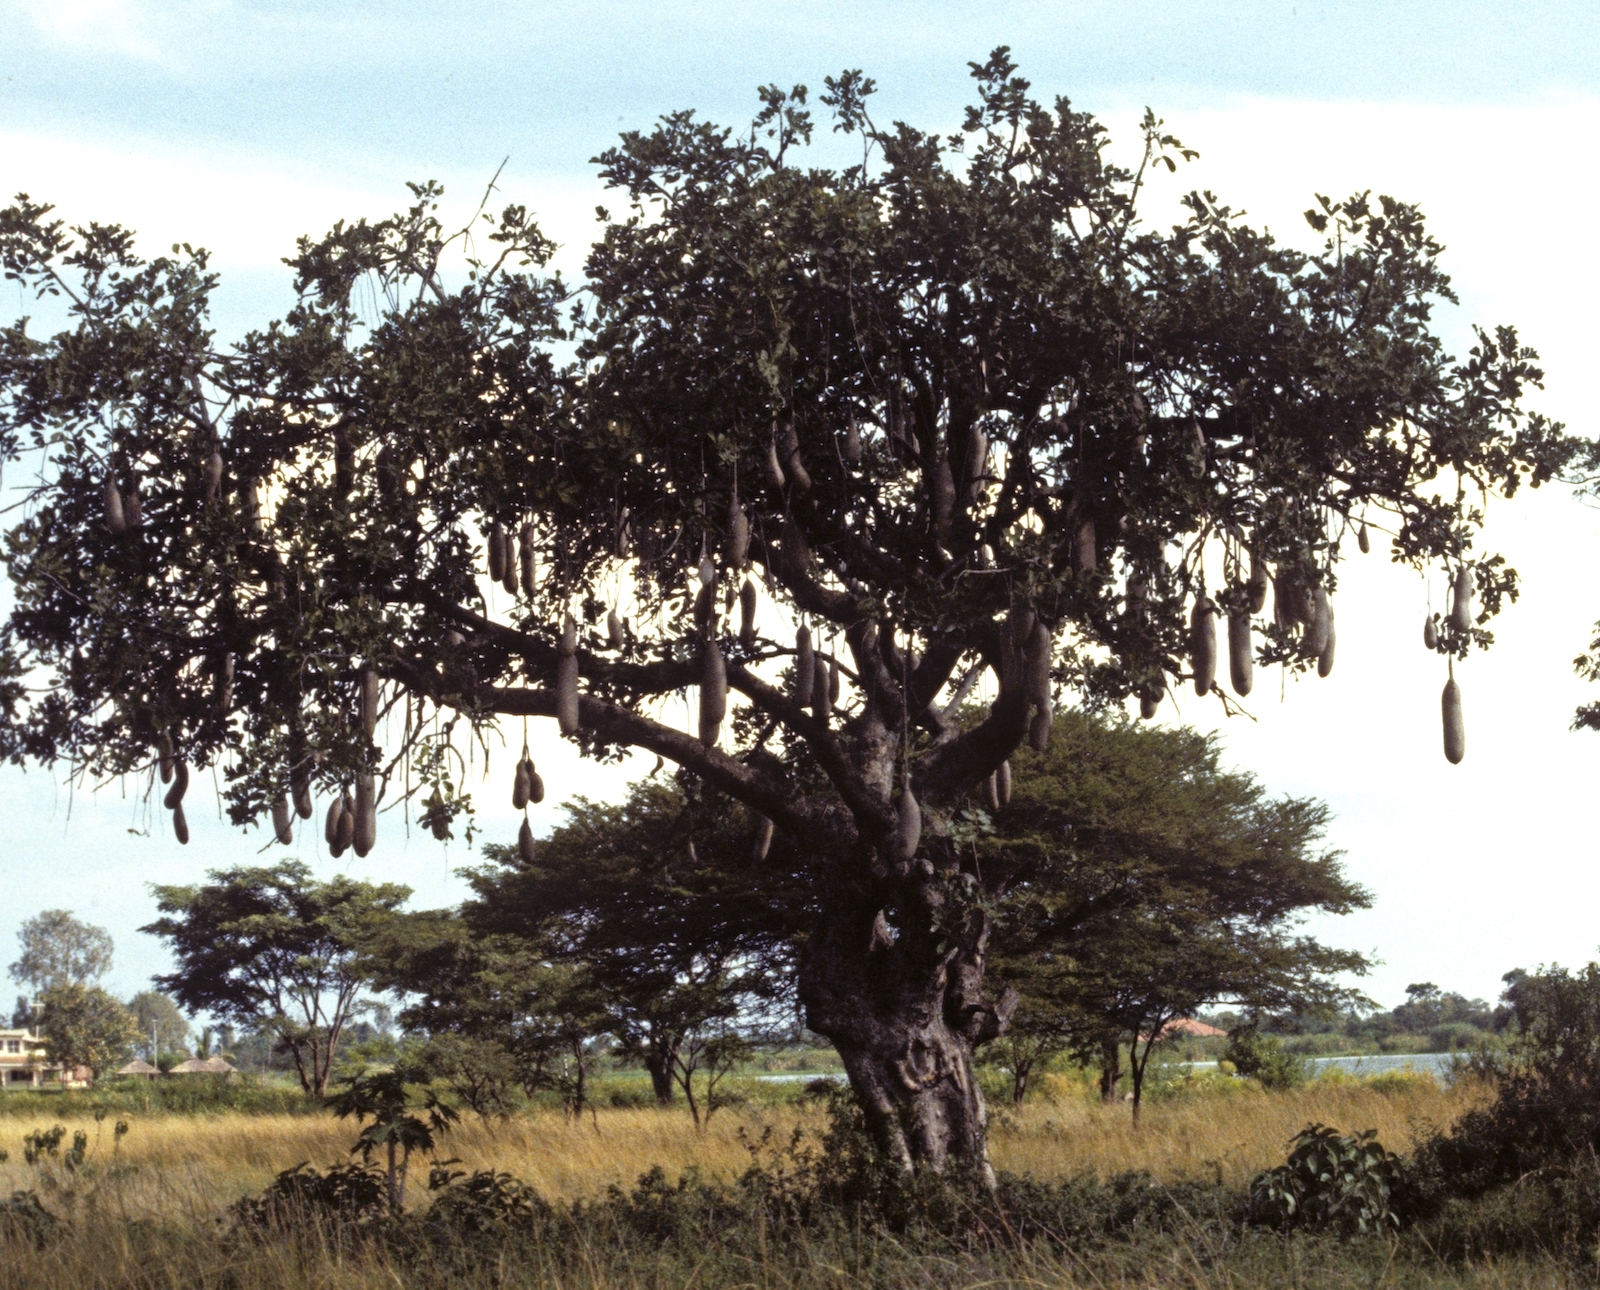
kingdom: Plantae
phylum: Tracheophyta
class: Magnoliopsida
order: Lamiales
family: Bignoniaceae
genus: Kigelia
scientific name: Kigelia africana
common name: Sausage tree
